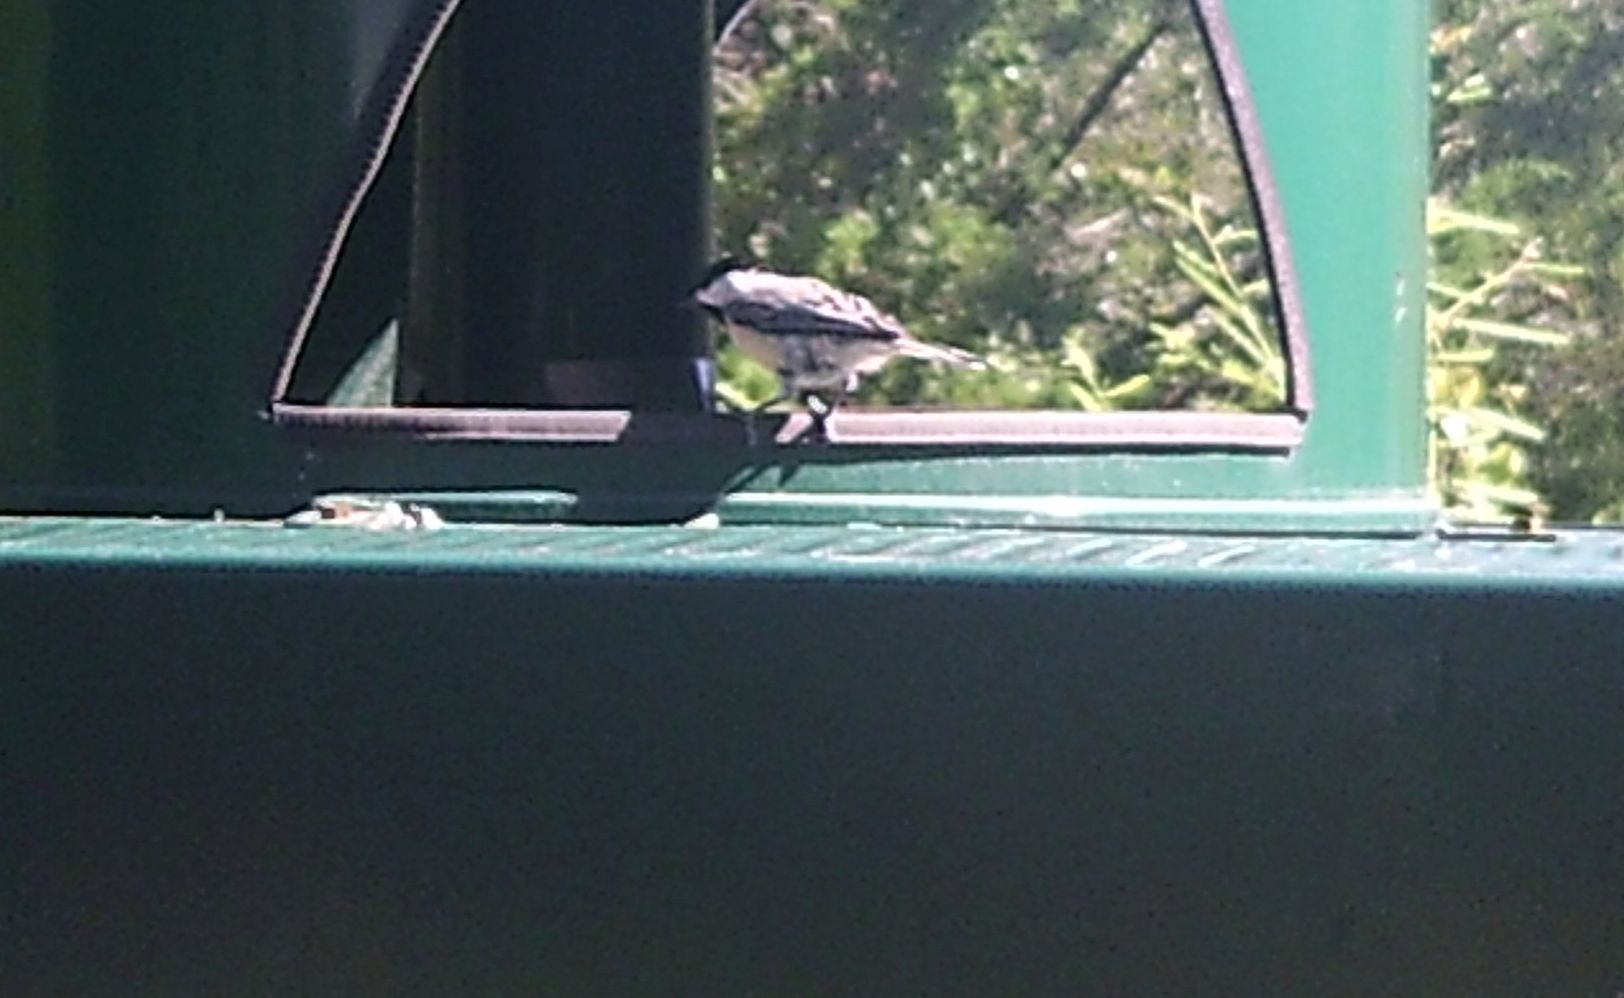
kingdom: Animalia
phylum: Chordata
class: Aves
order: Passeriformes
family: Paridae
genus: Poecile
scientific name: Poecile carolinensis
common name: Carolina chickadee
